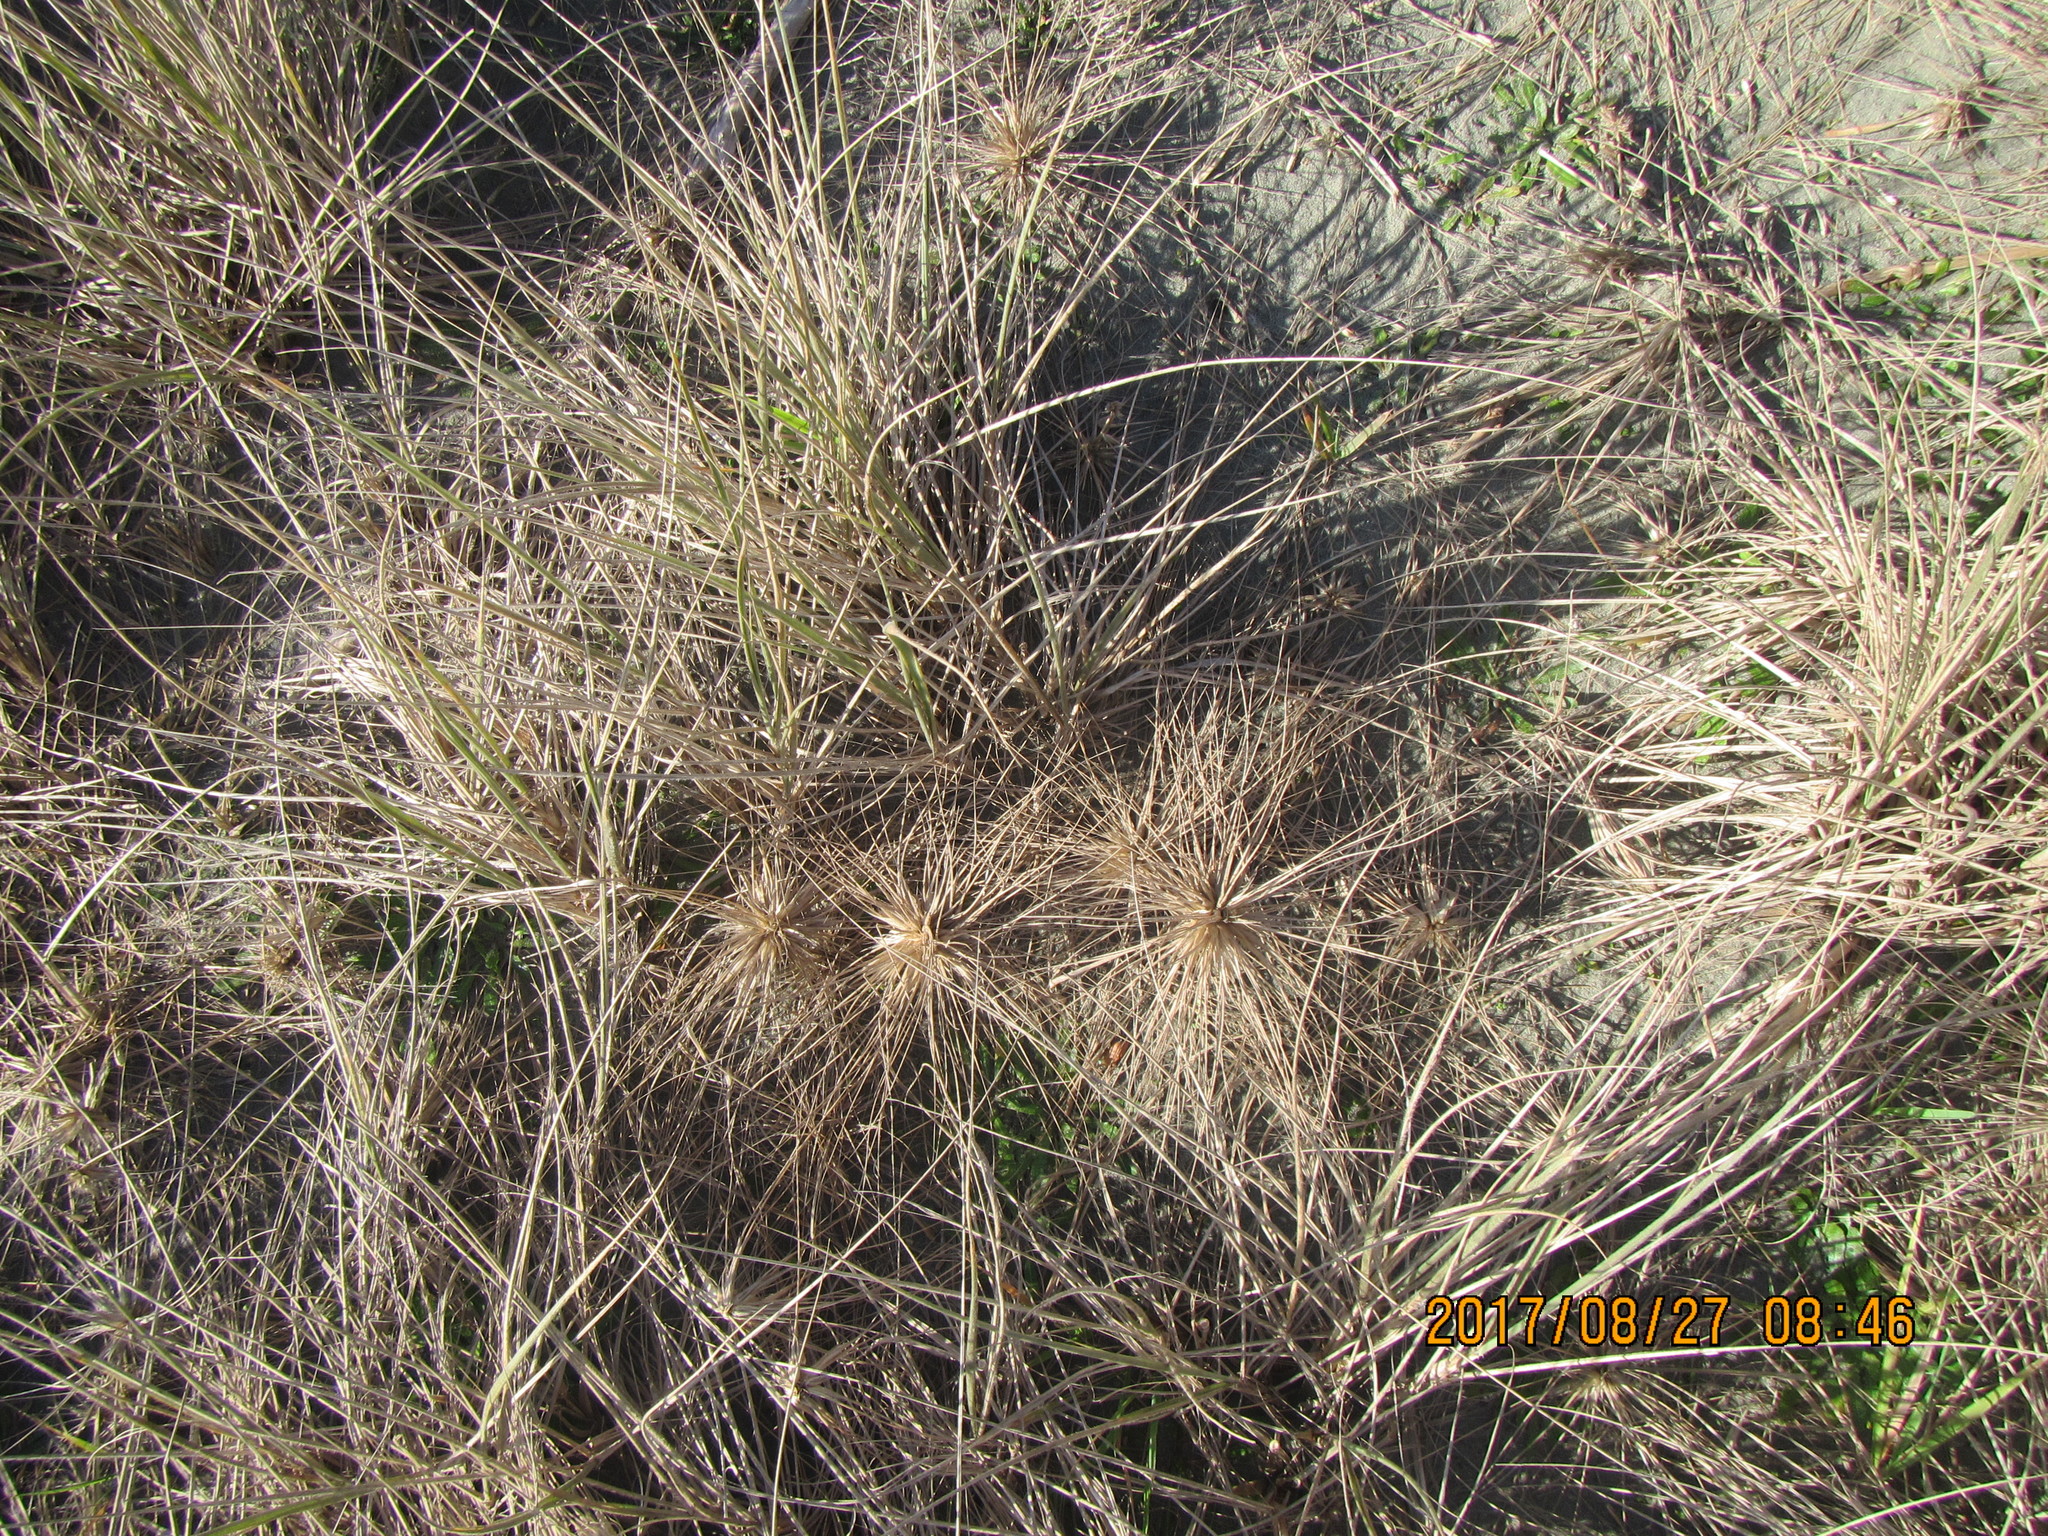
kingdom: Plantae
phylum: Tracheophyta
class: Liliopsida
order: Poales
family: Poaceae
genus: Spinifex
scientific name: Spinifex sericeus
